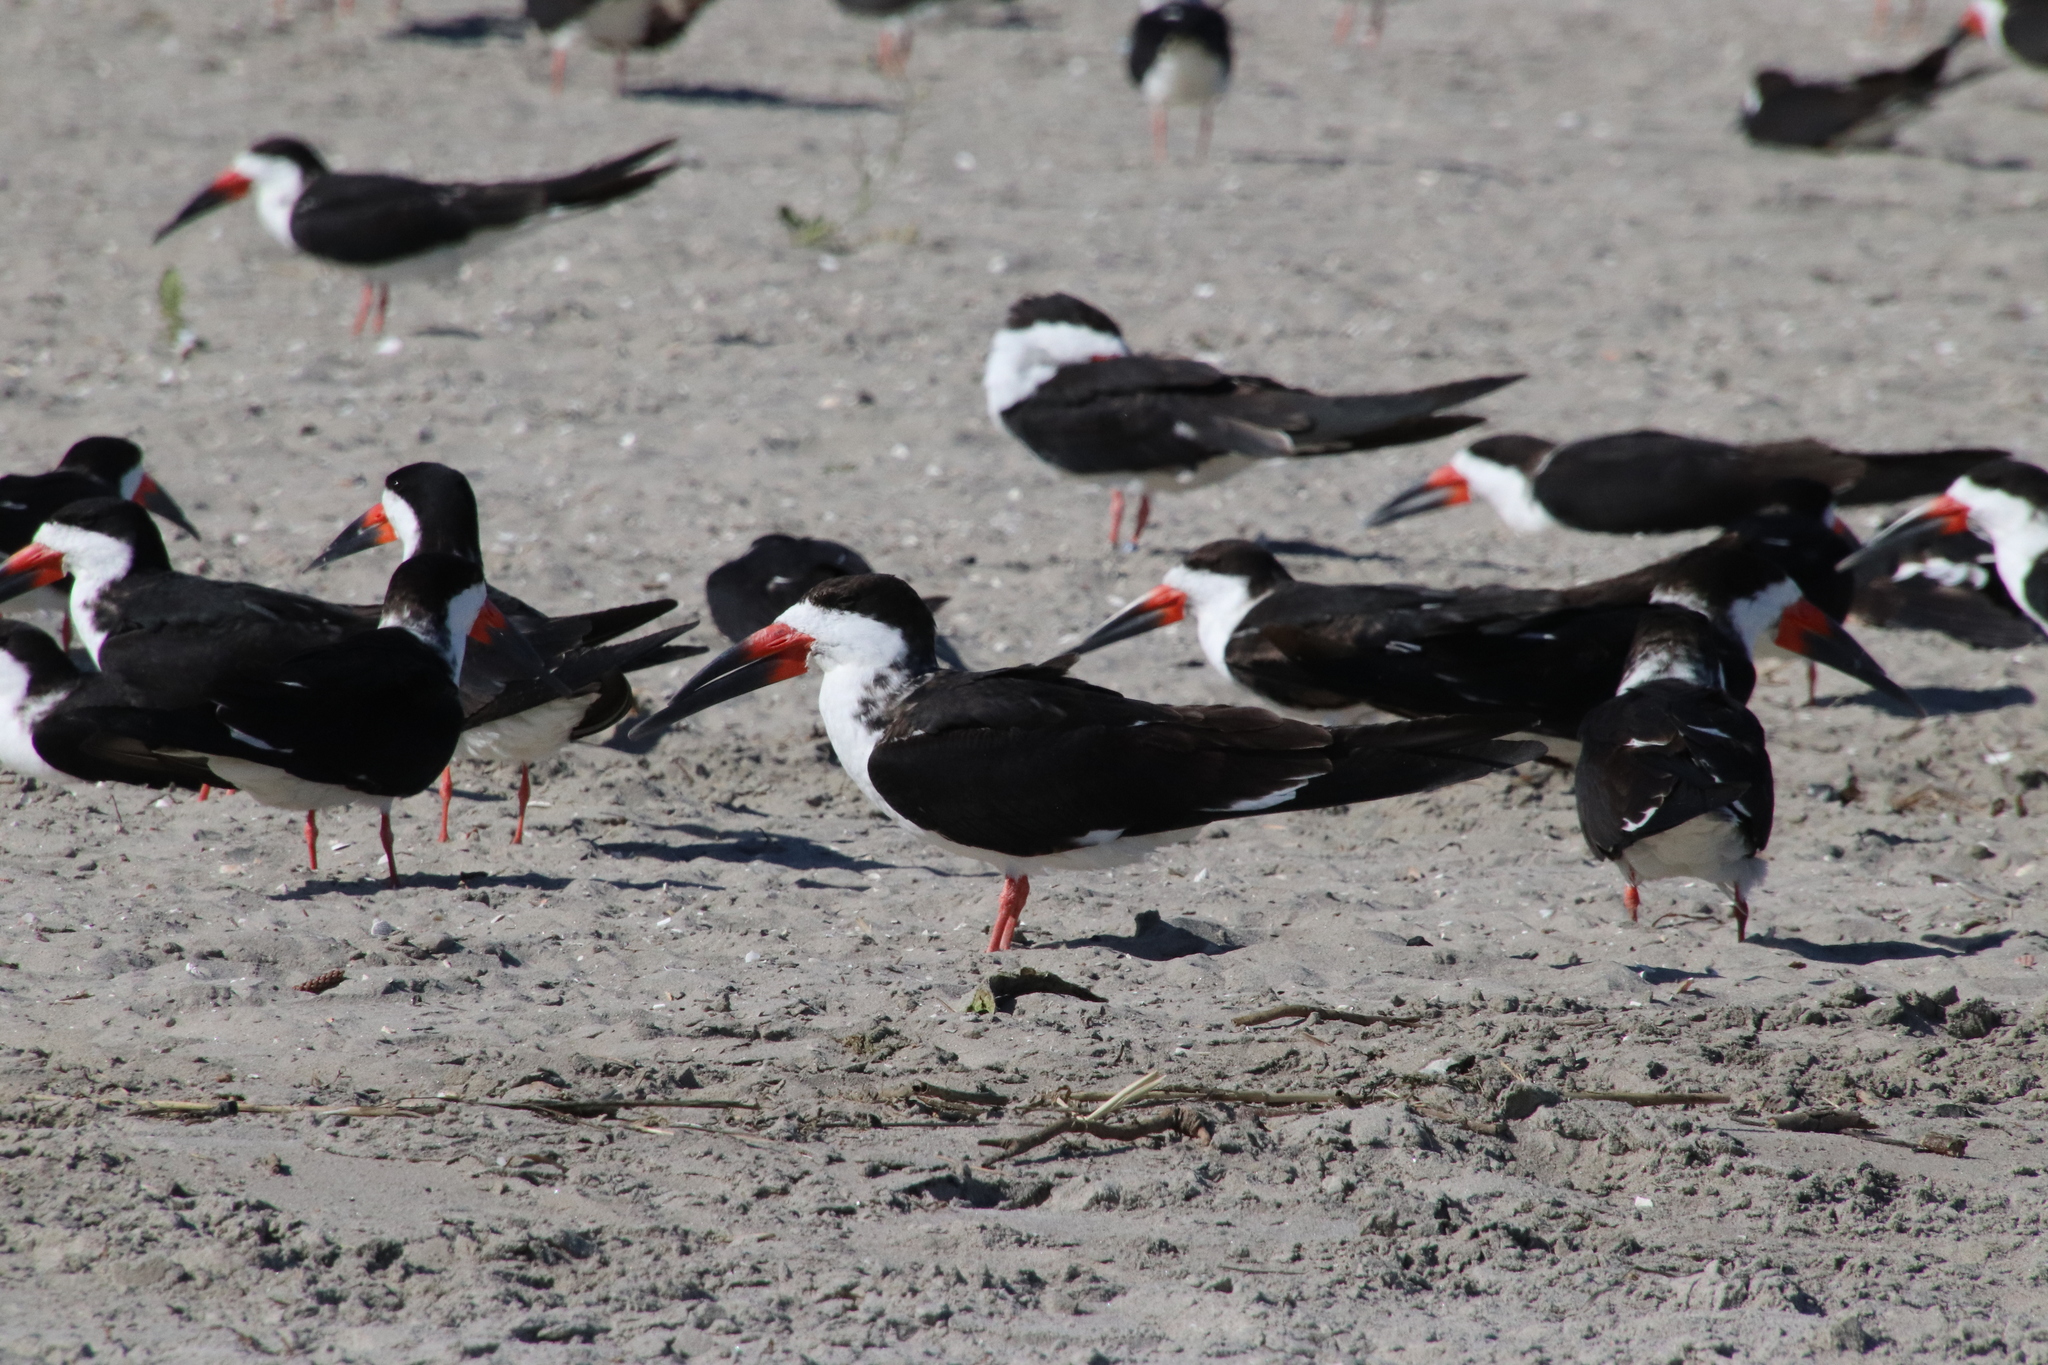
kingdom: Animalia
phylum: Chordata
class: Aves
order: Charadriiformes
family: Laridae
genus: Rynchops
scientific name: Rynchops niger
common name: Black skimmer
